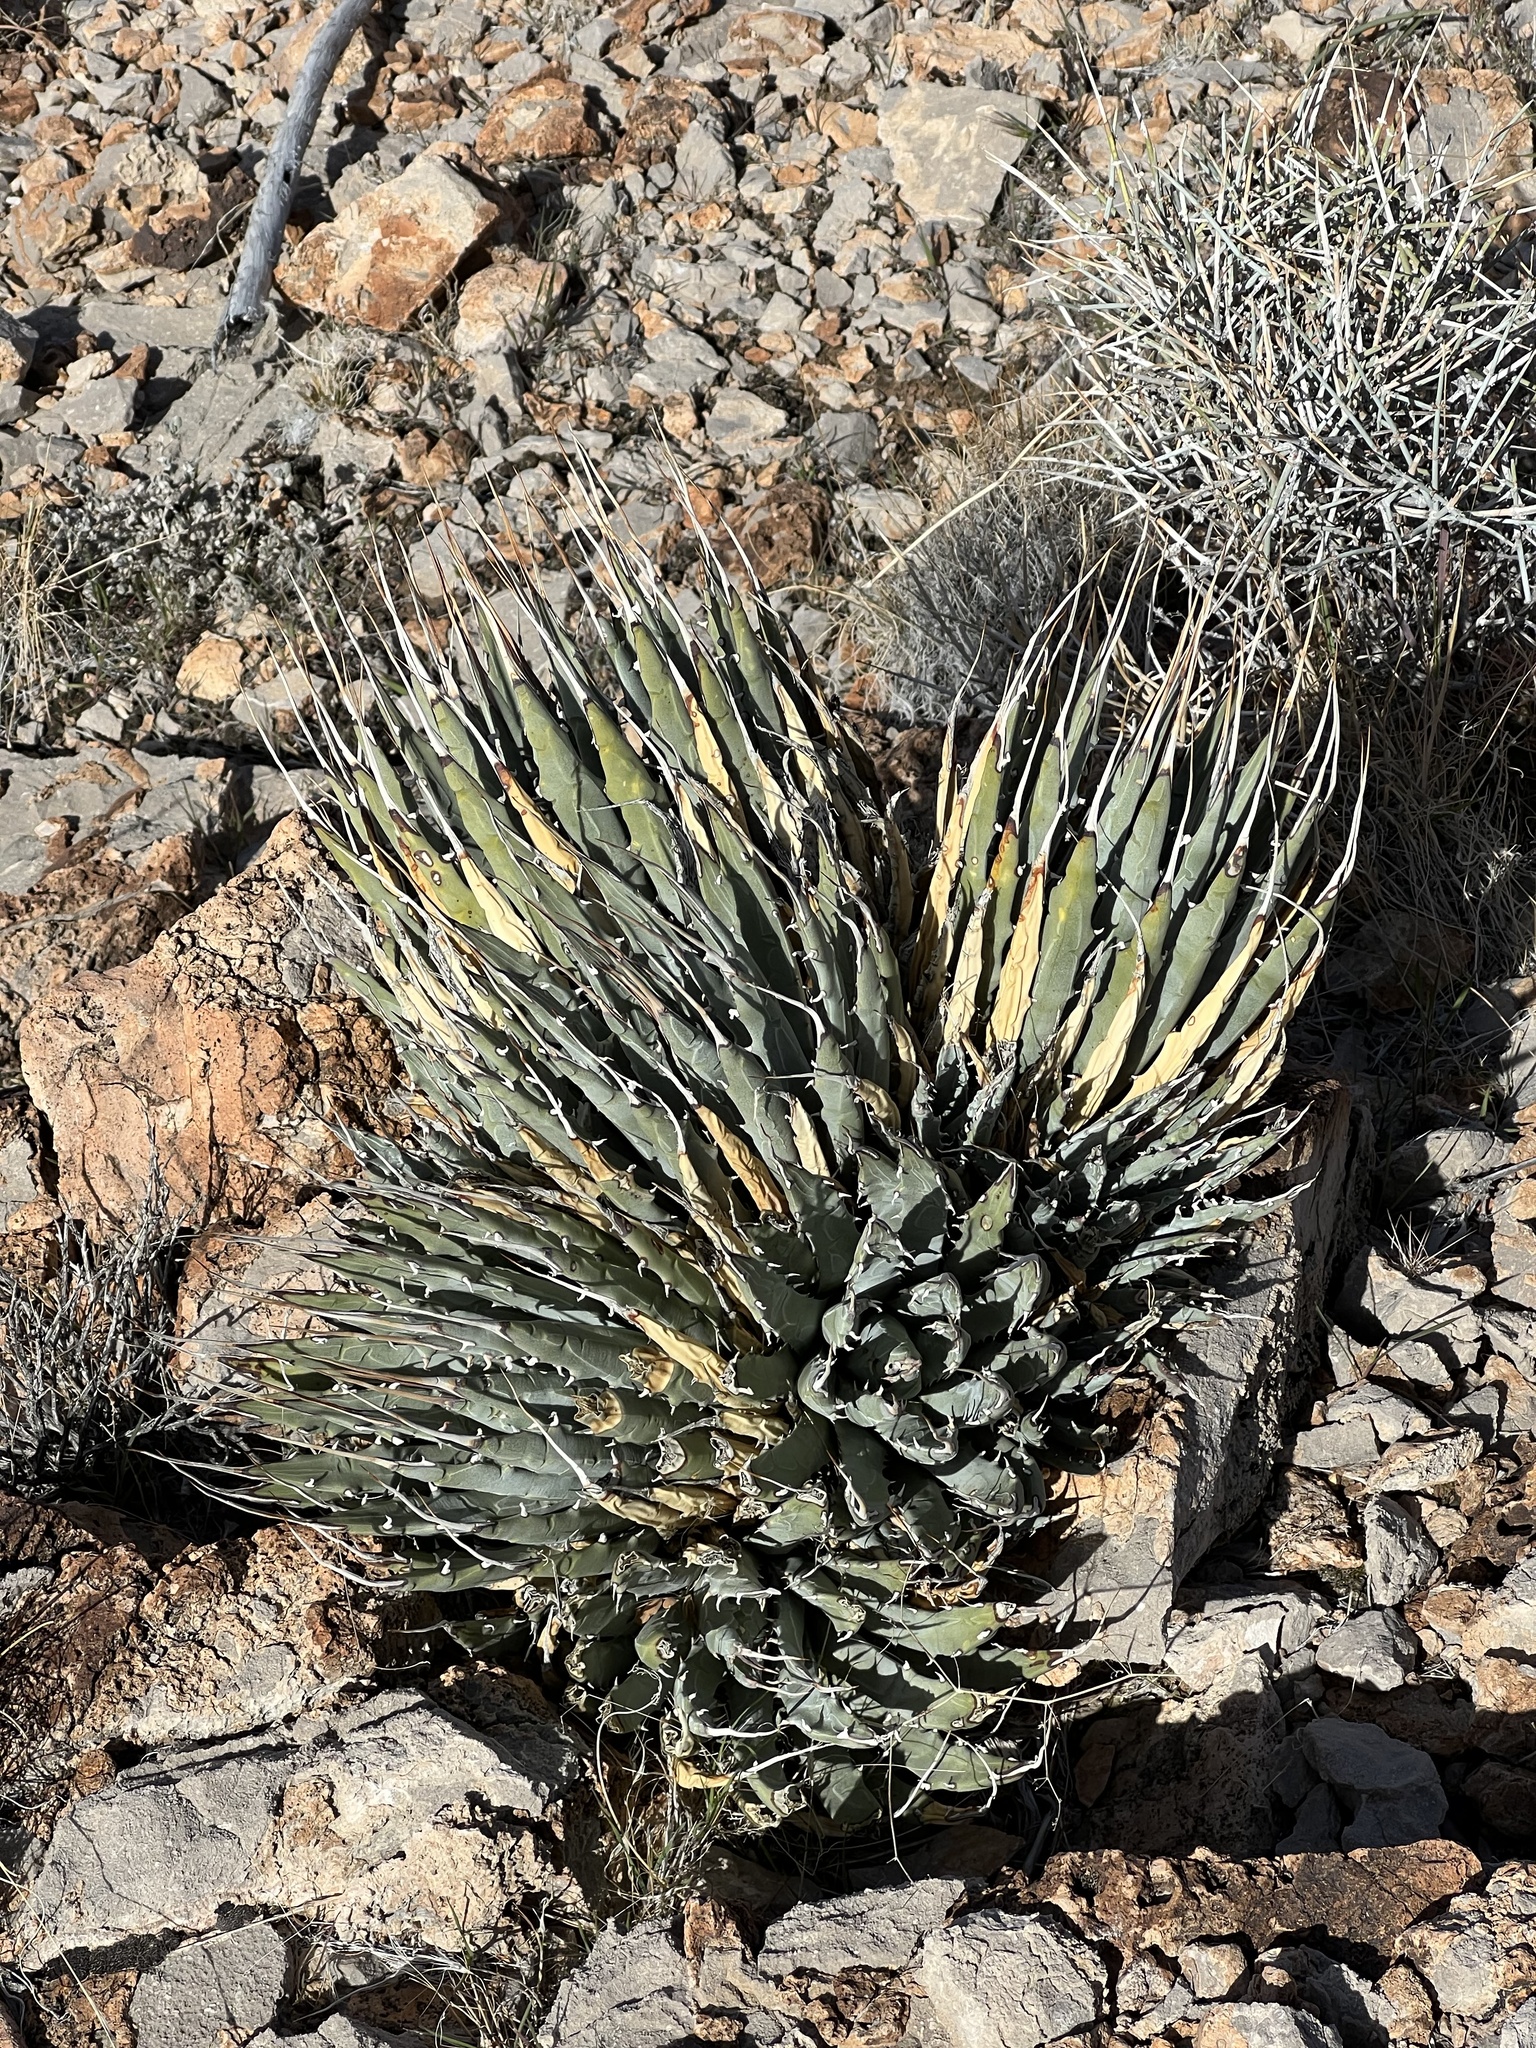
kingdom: Plantae
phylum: Tracheophyta
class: Liliopsida
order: Asparagales
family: Asparagaceae
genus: Agave
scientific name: Agave utahensis
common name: Utah agave
